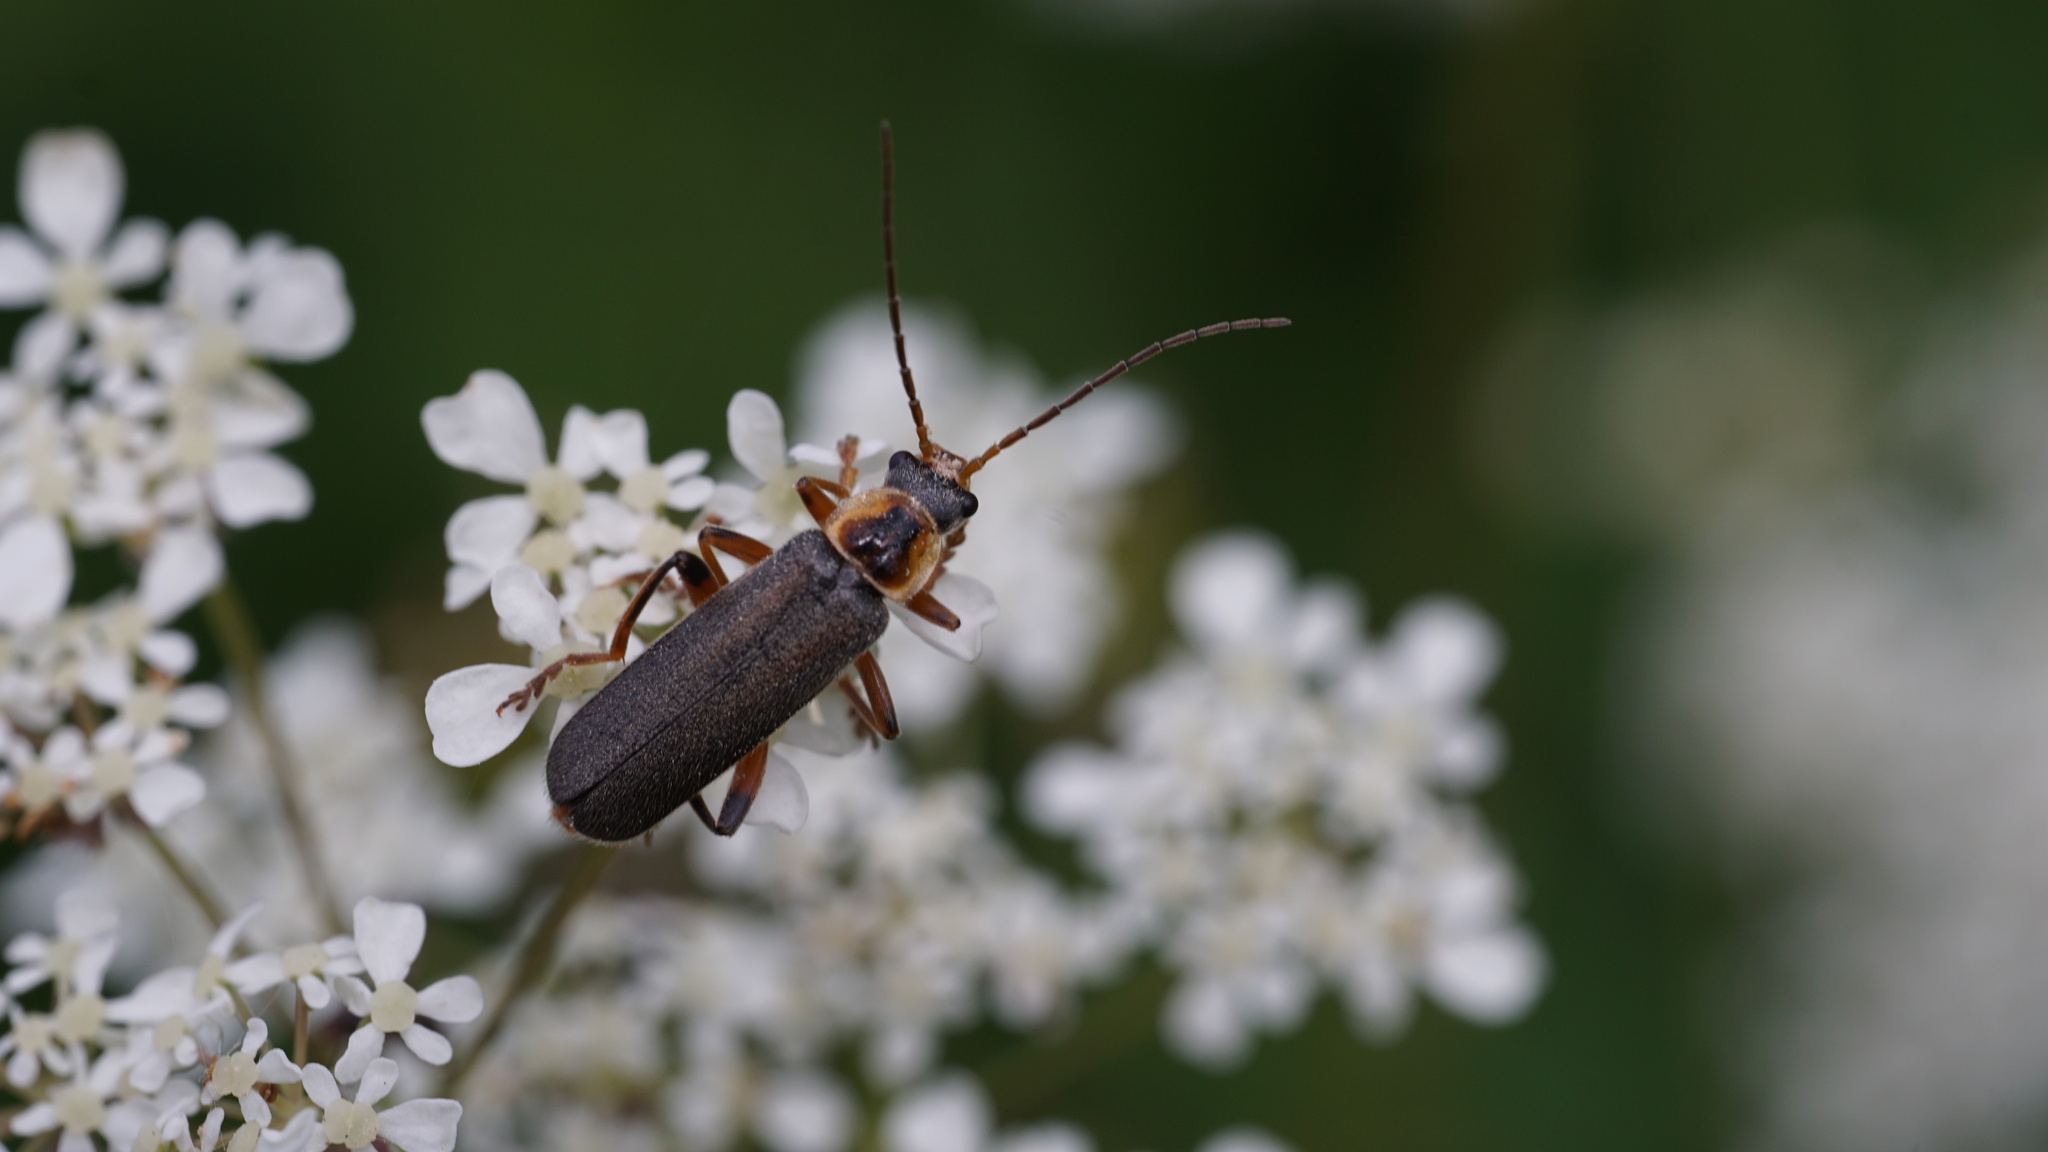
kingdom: Animalia
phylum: Arthropoda
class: Insecta
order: Coleoptera
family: Cantharidae
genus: Cantharis
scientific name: Cantharis nigricans
